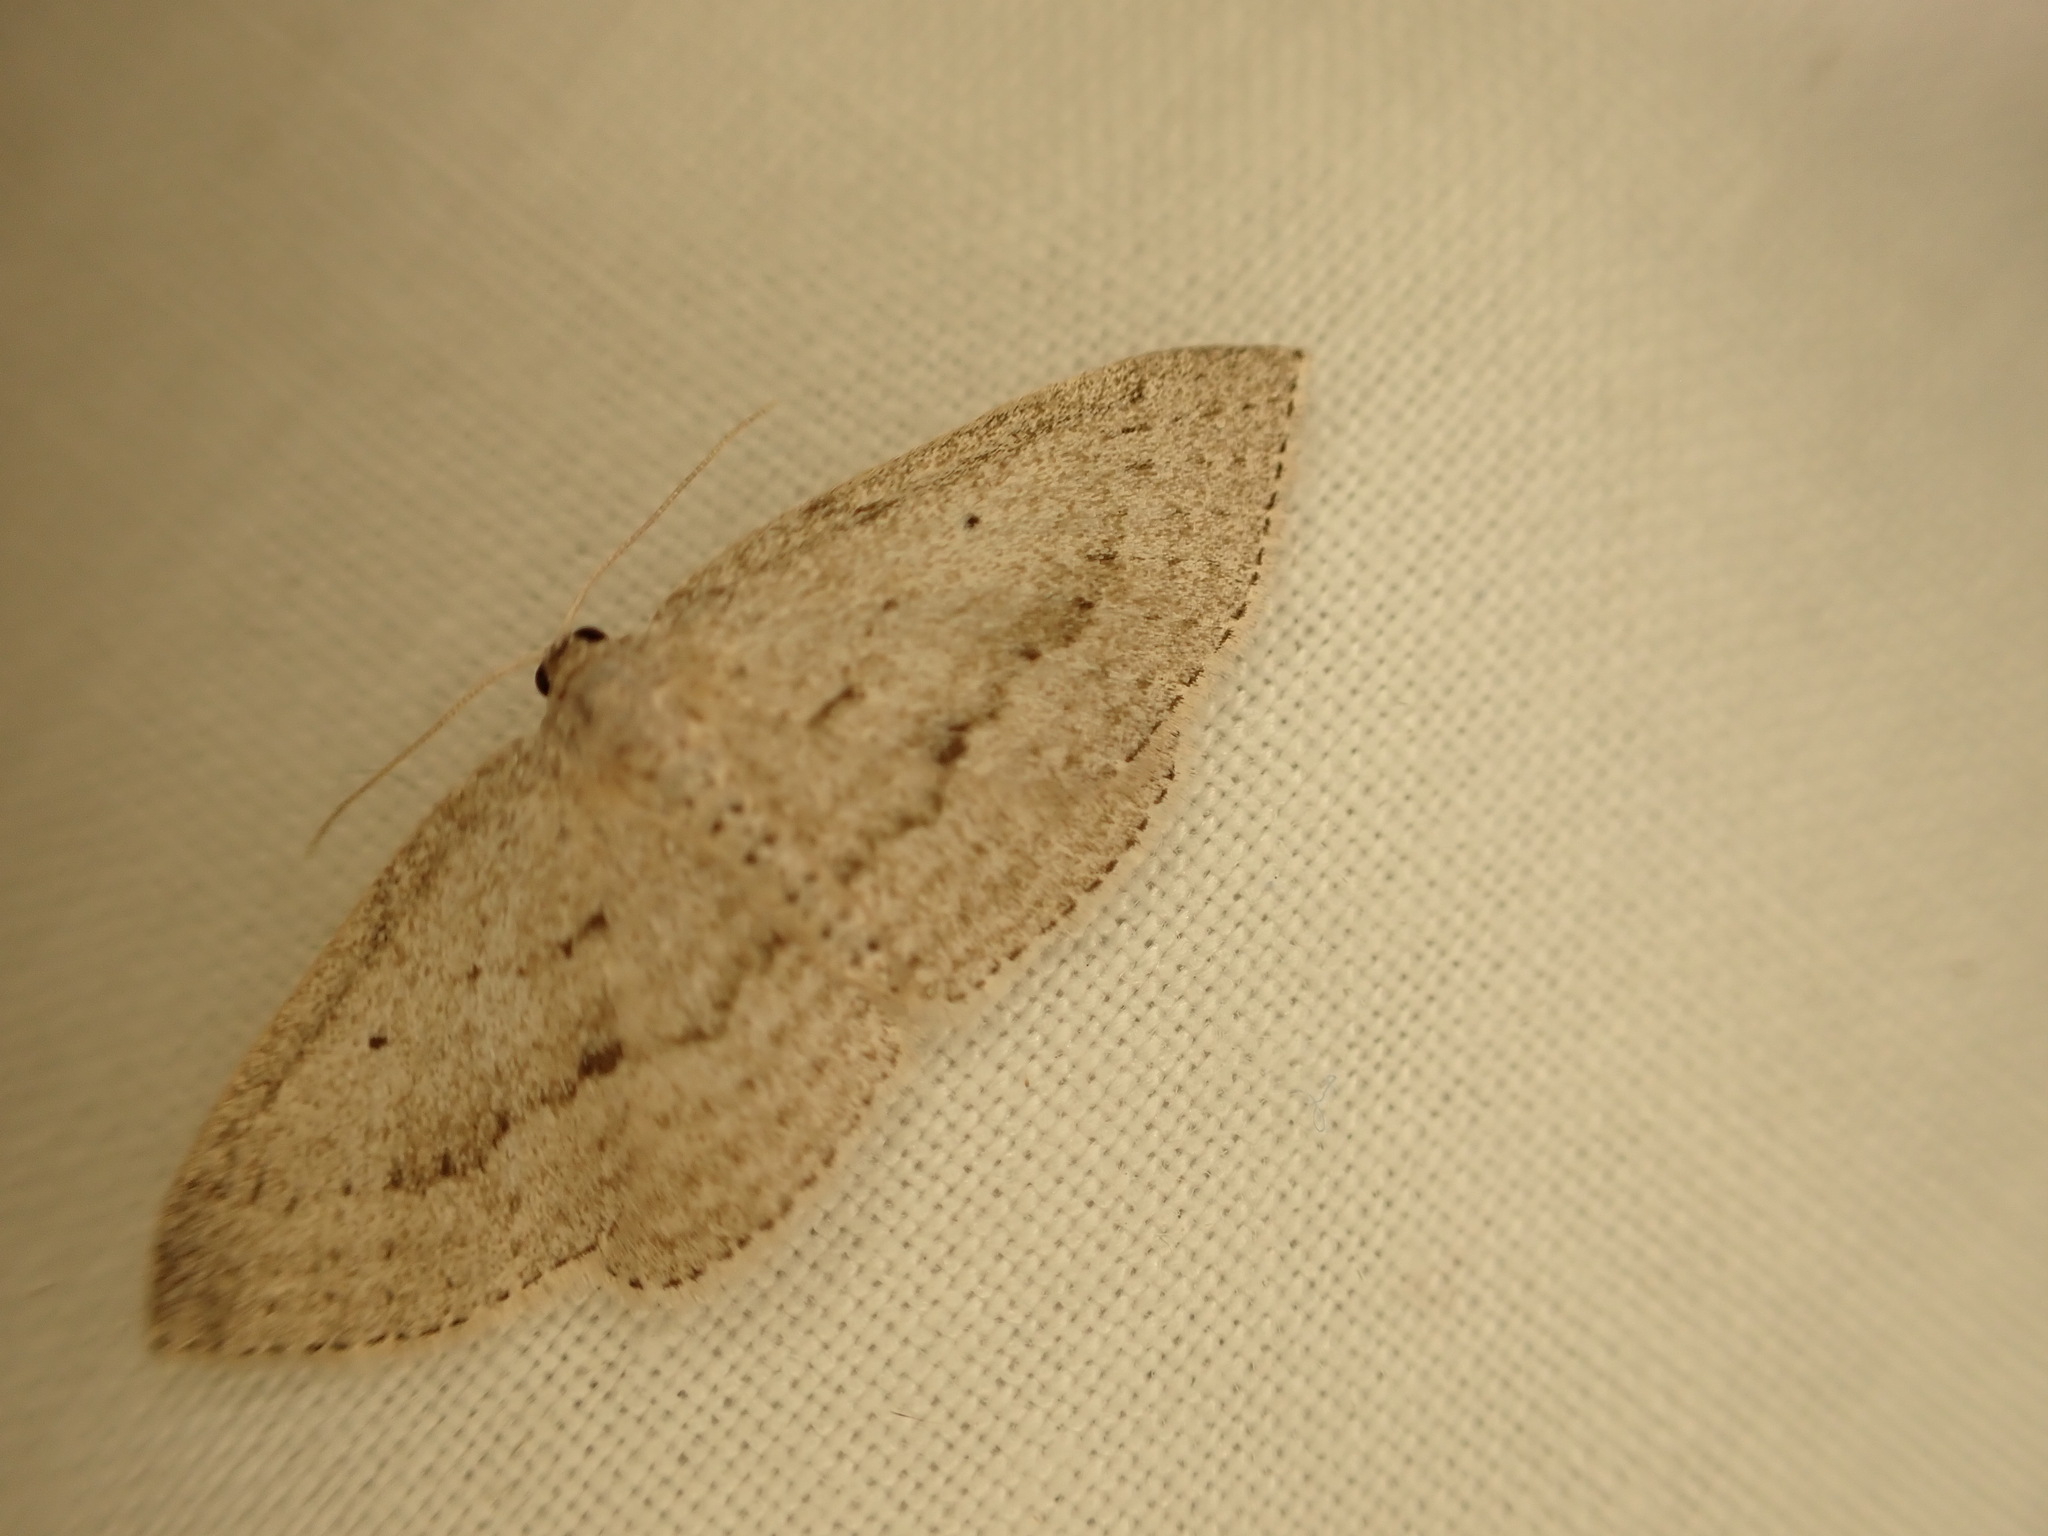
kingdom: Animalia
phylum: Arthropoda
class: Insecta
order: Lepidoptera
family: Geometridae
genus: Poecilasthena
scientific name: Poecilasthena schistaria
